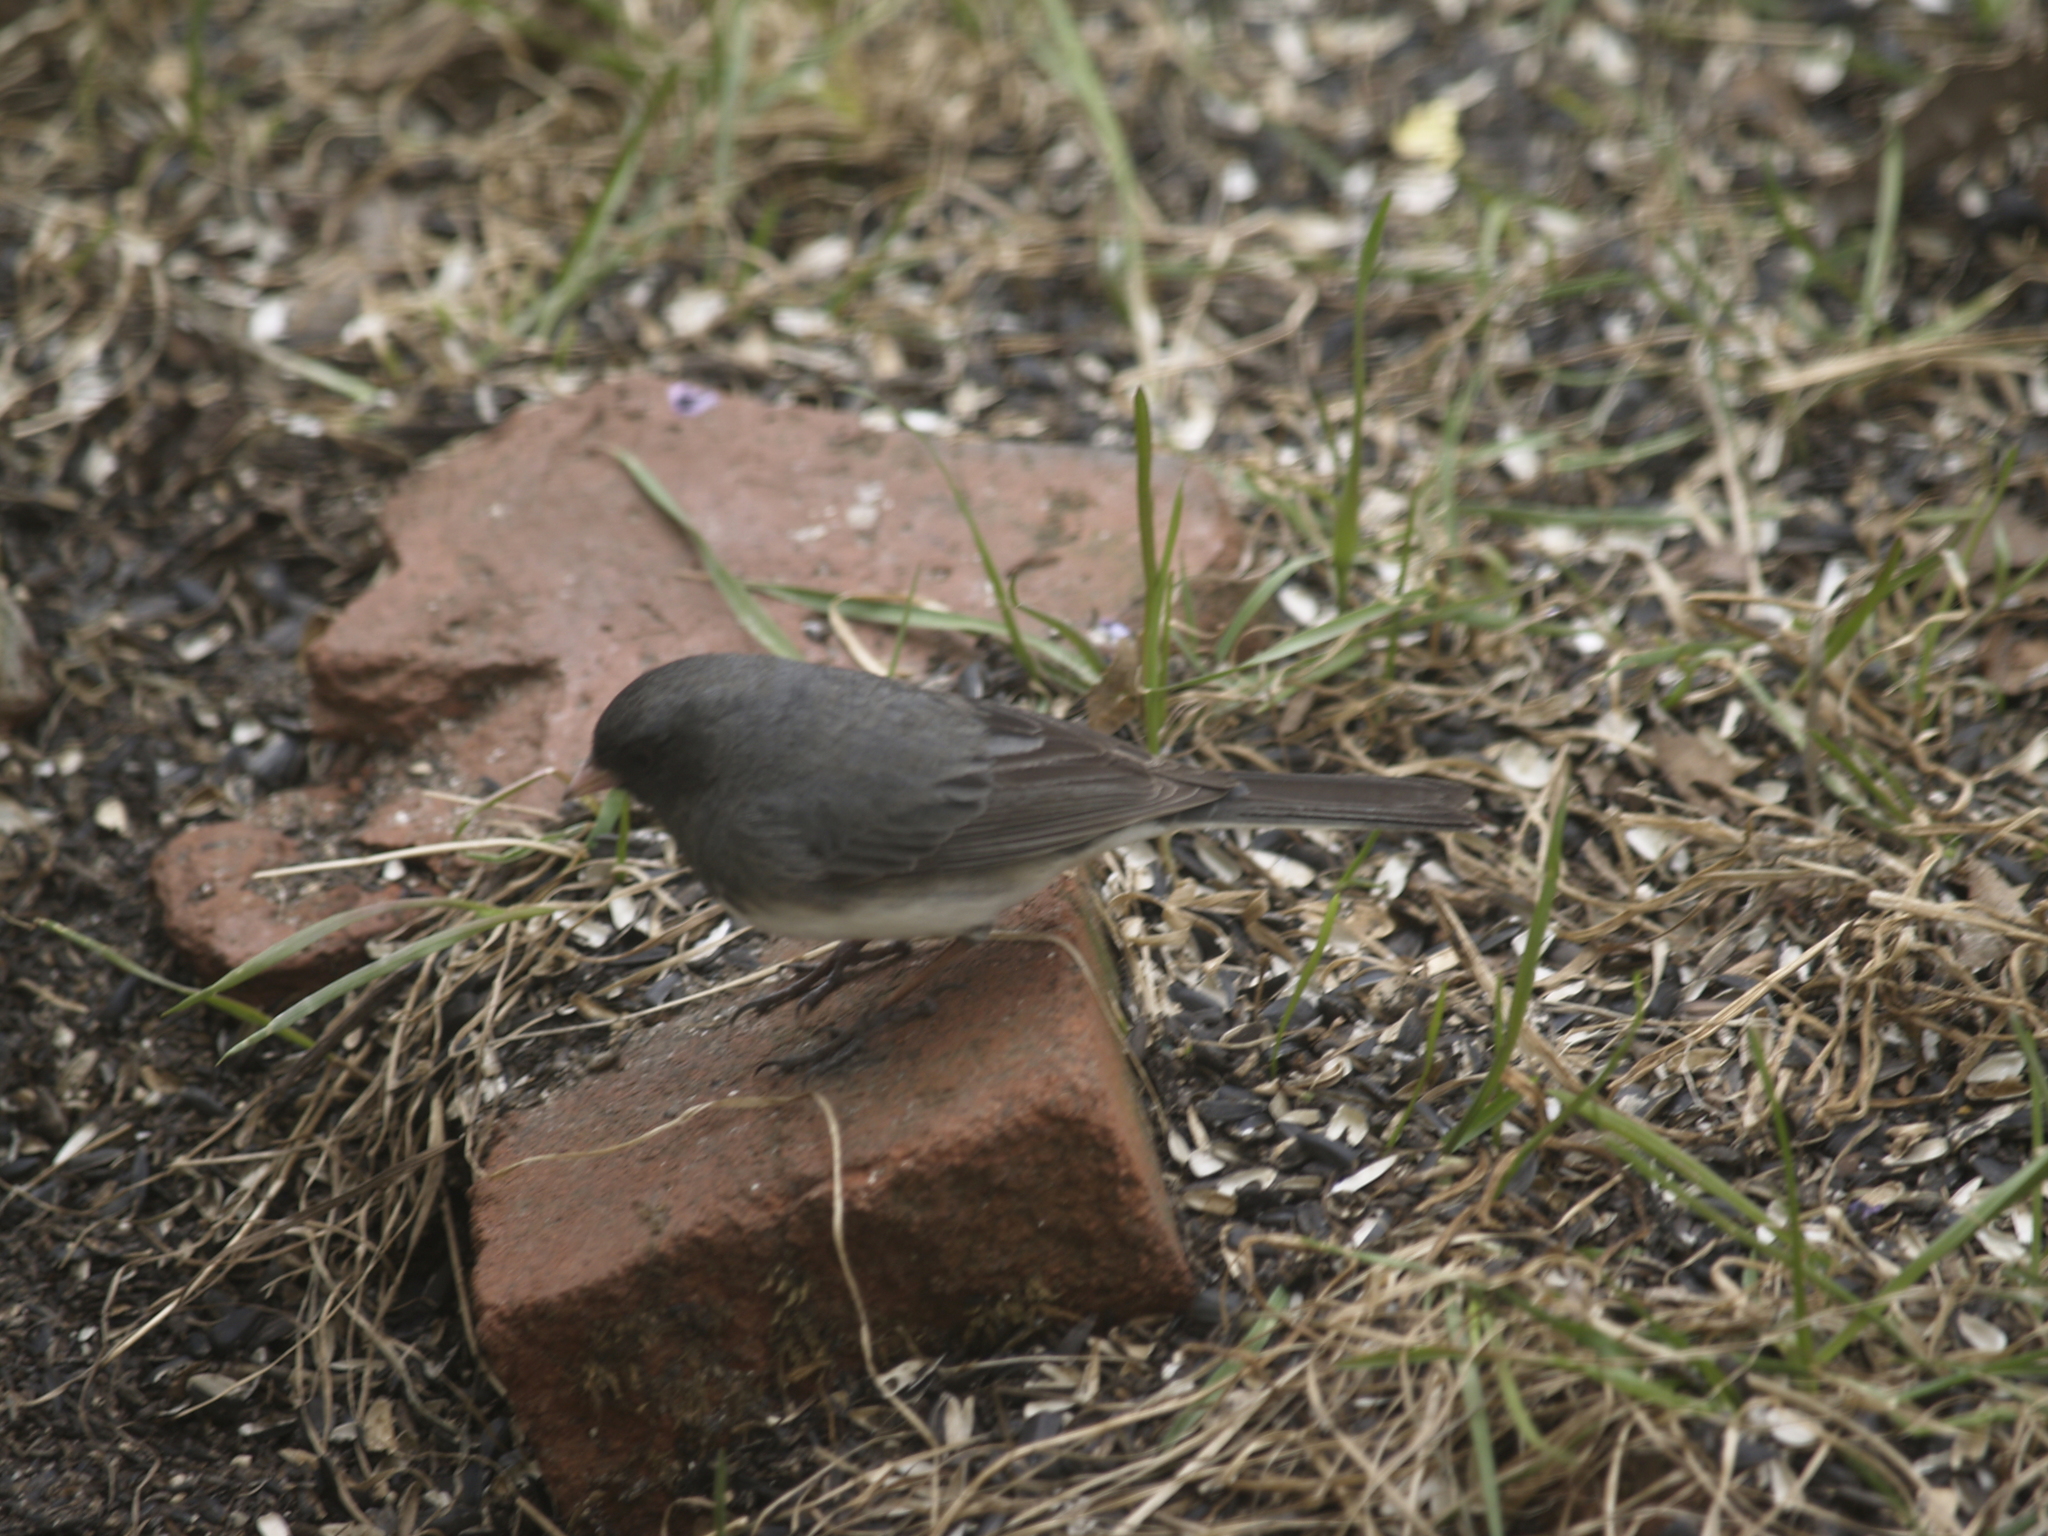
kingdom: Animalia
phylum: Chordata
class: Aves
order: Passeriformes
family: Passerellidae
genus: Junco
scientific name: Junco hyemalis
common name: Dark-eyed junco
